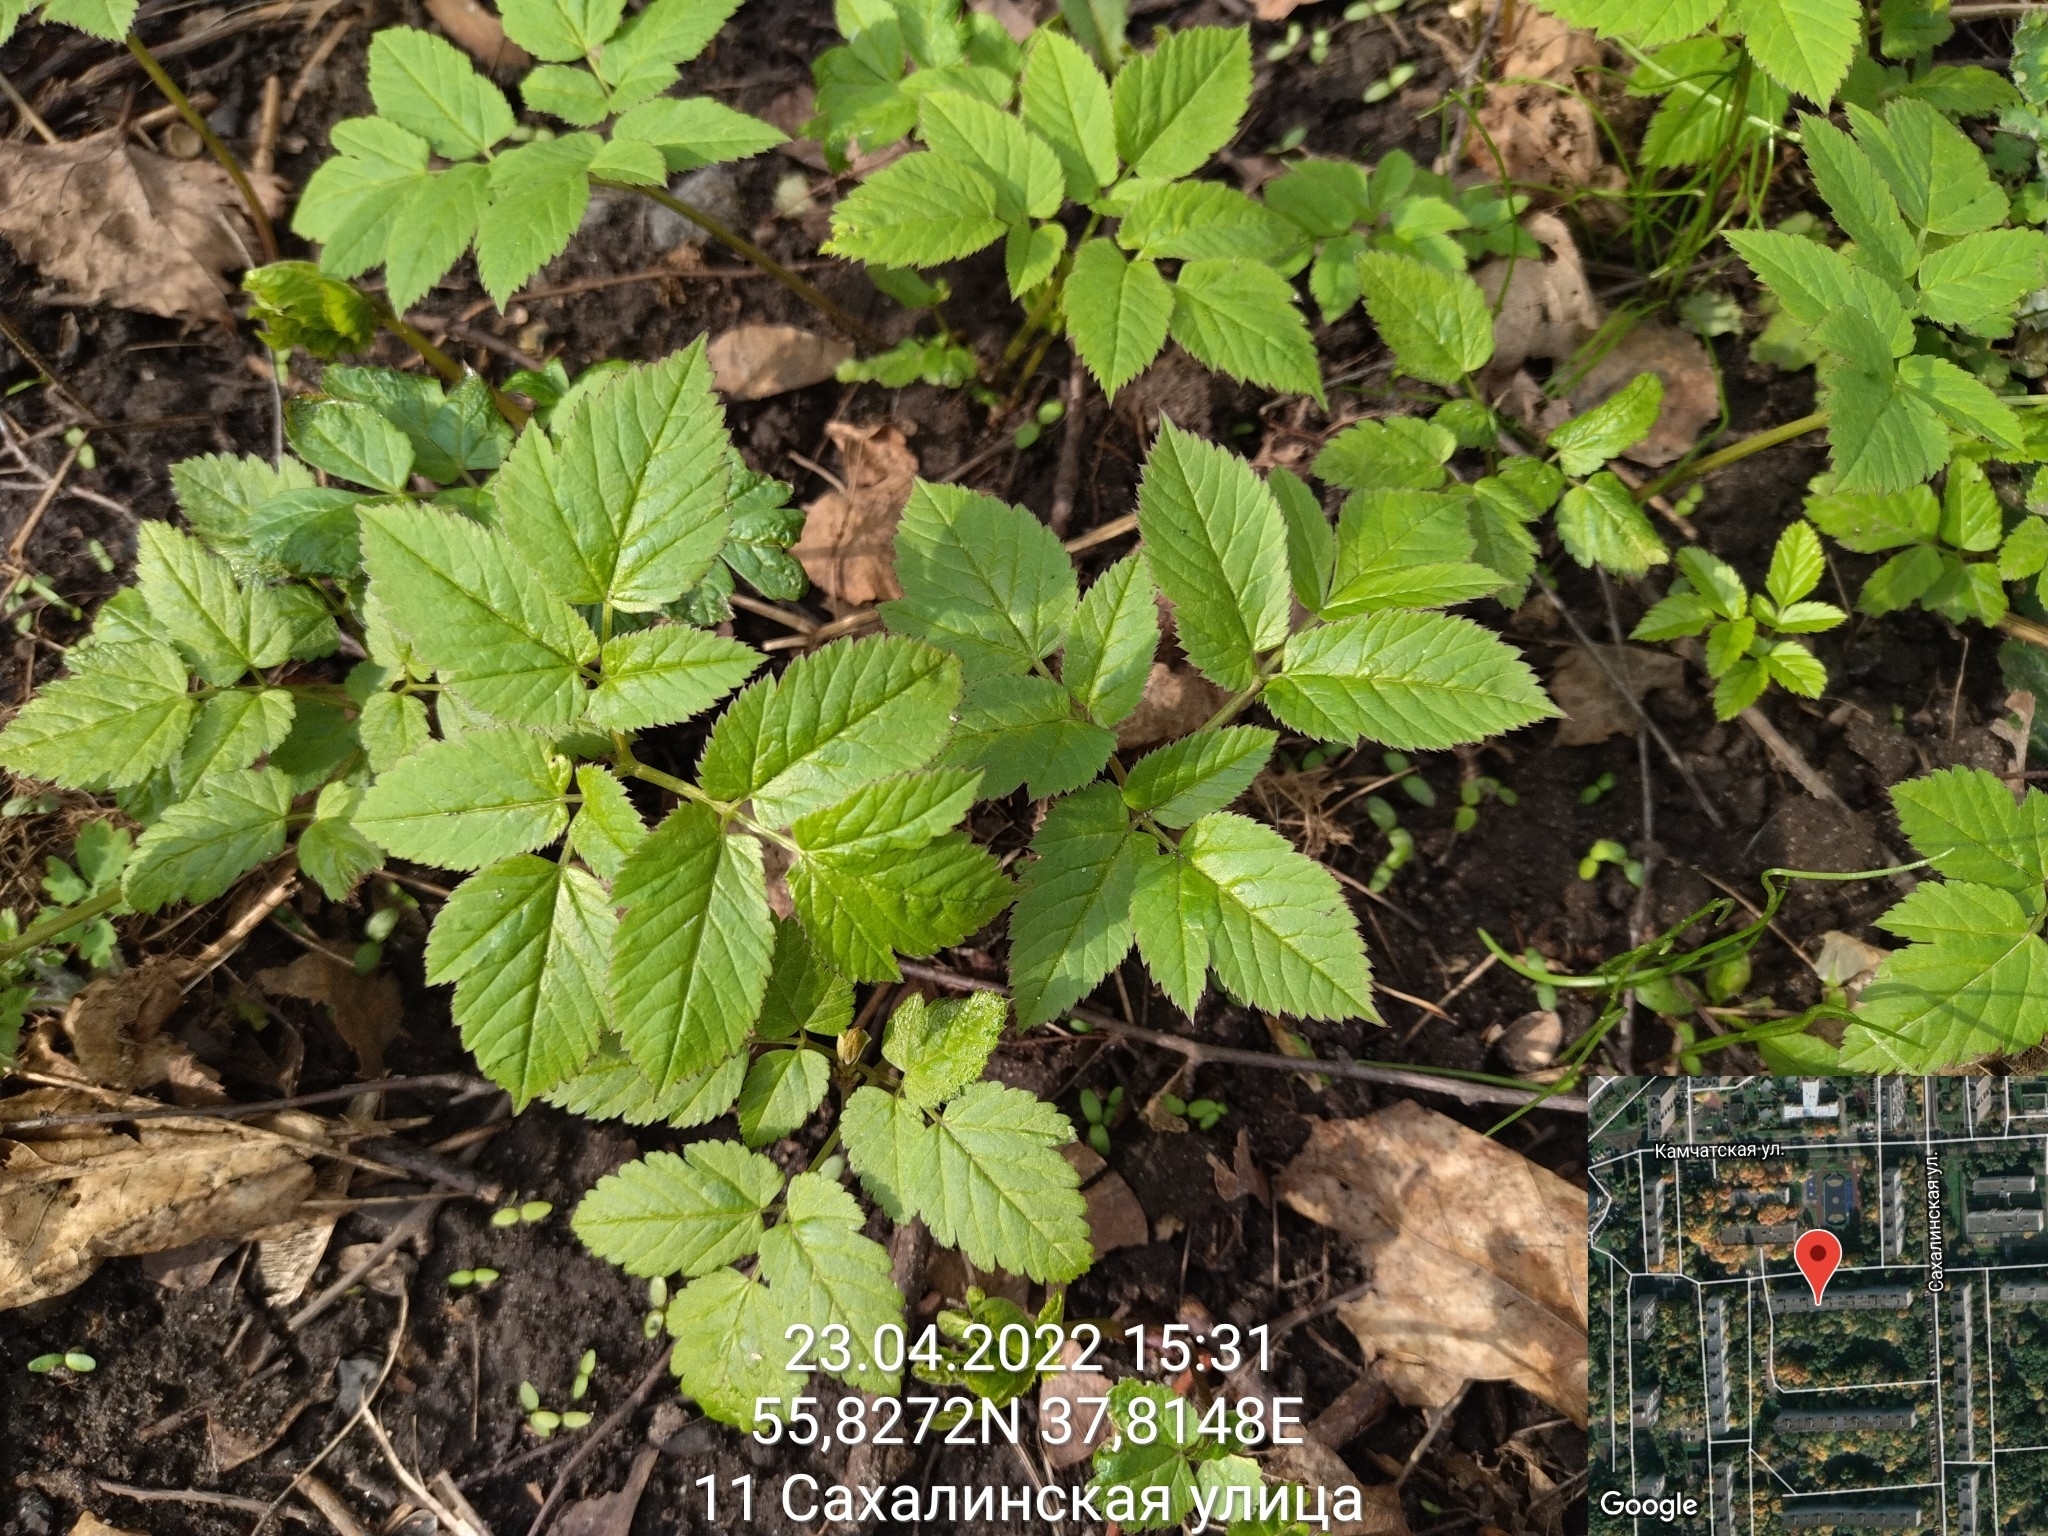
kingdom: Plantae
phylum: Tracheophyta
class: Magnoliopsida
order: Apiales
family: Apiaceae
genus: Aegopodium
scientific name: Aegopodium podagraria
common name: Ground-elder
